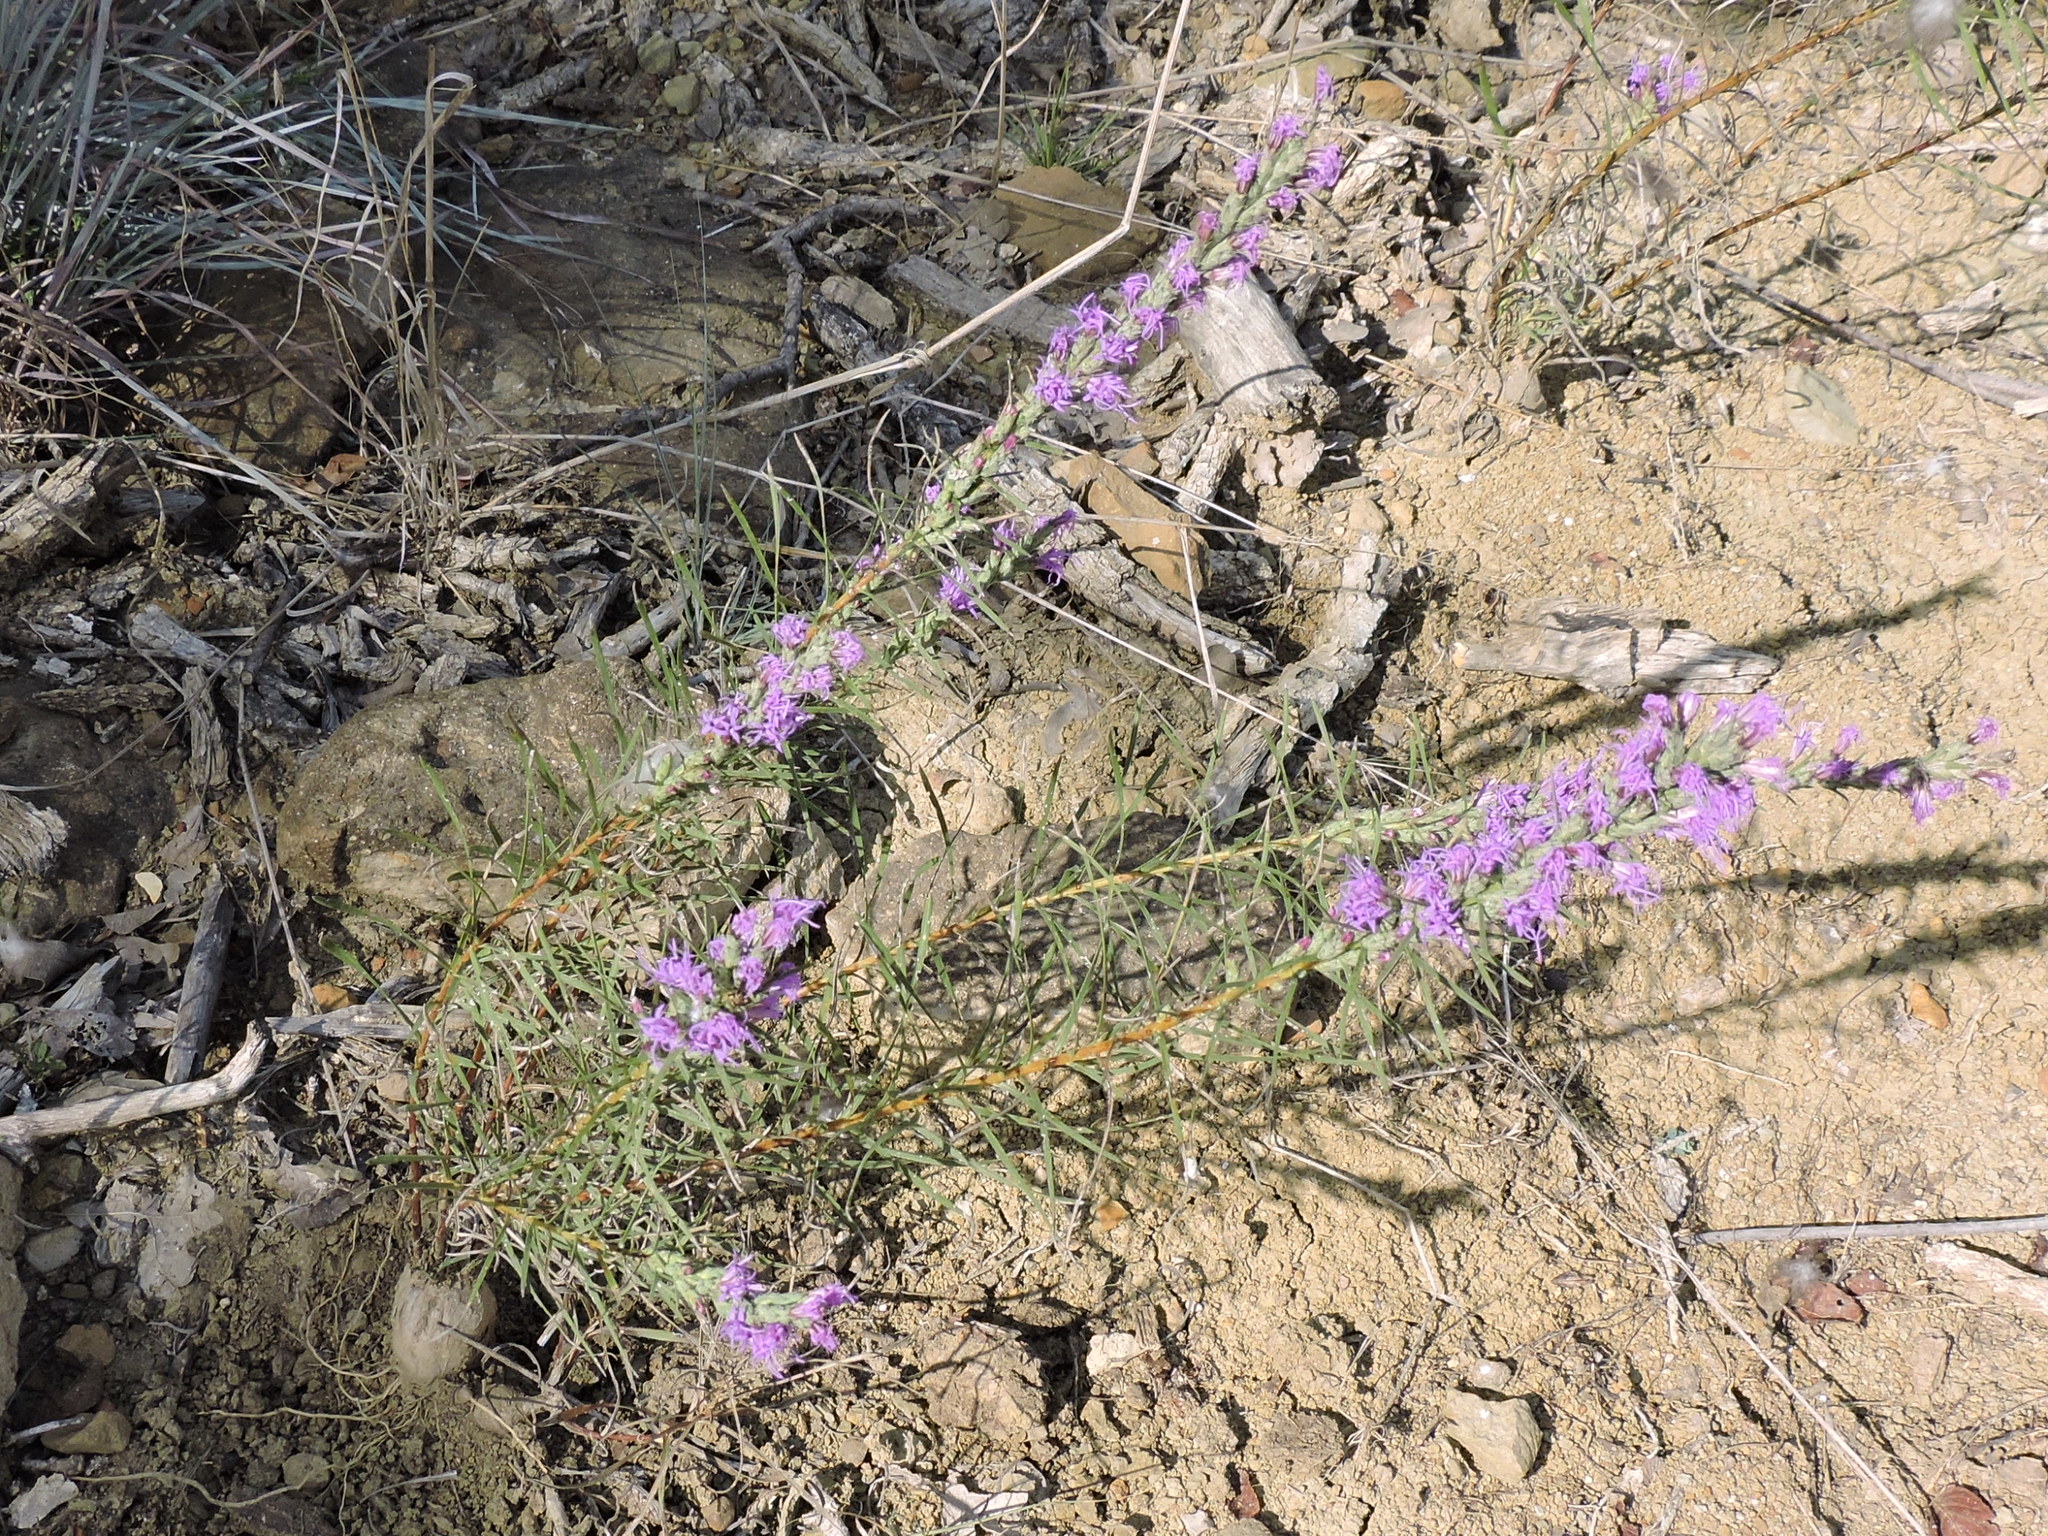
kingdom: Plantae
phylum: Tracheophyta
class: Magnoliopsida
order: Asterales
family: Asteraceae
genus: Liatris
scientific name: Liatris punctata
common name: Dotted gayfeather
